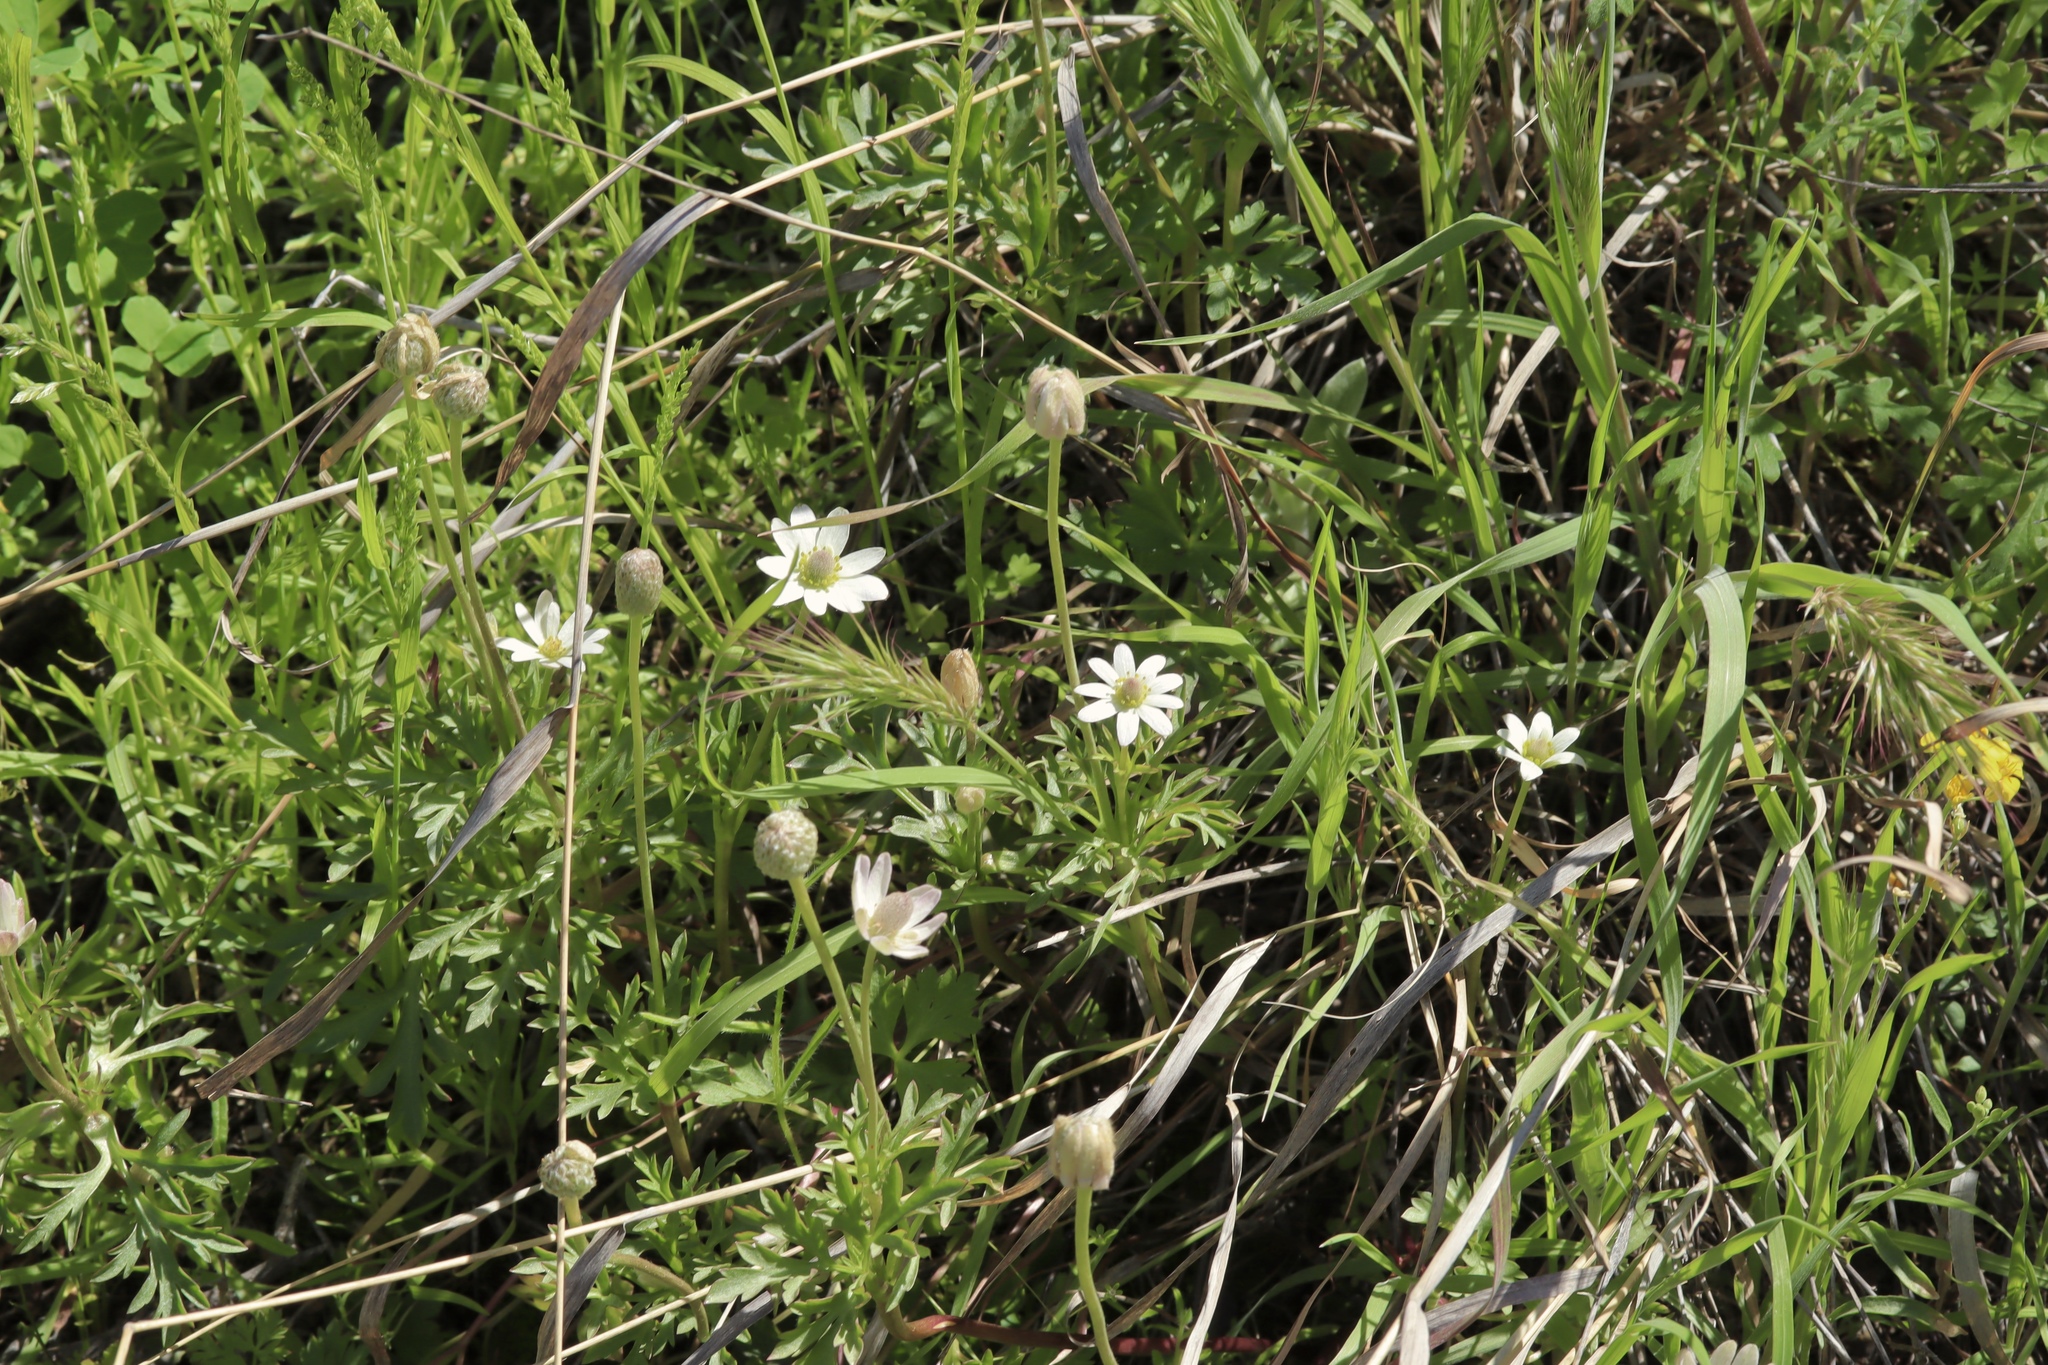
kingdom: Plantae
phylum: Tracheophyta
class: Magnoliopsida
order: Ranunculales
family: Ranunculaceae
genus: Anemone
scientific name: Anemone tuberosa
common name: Desert anemone
